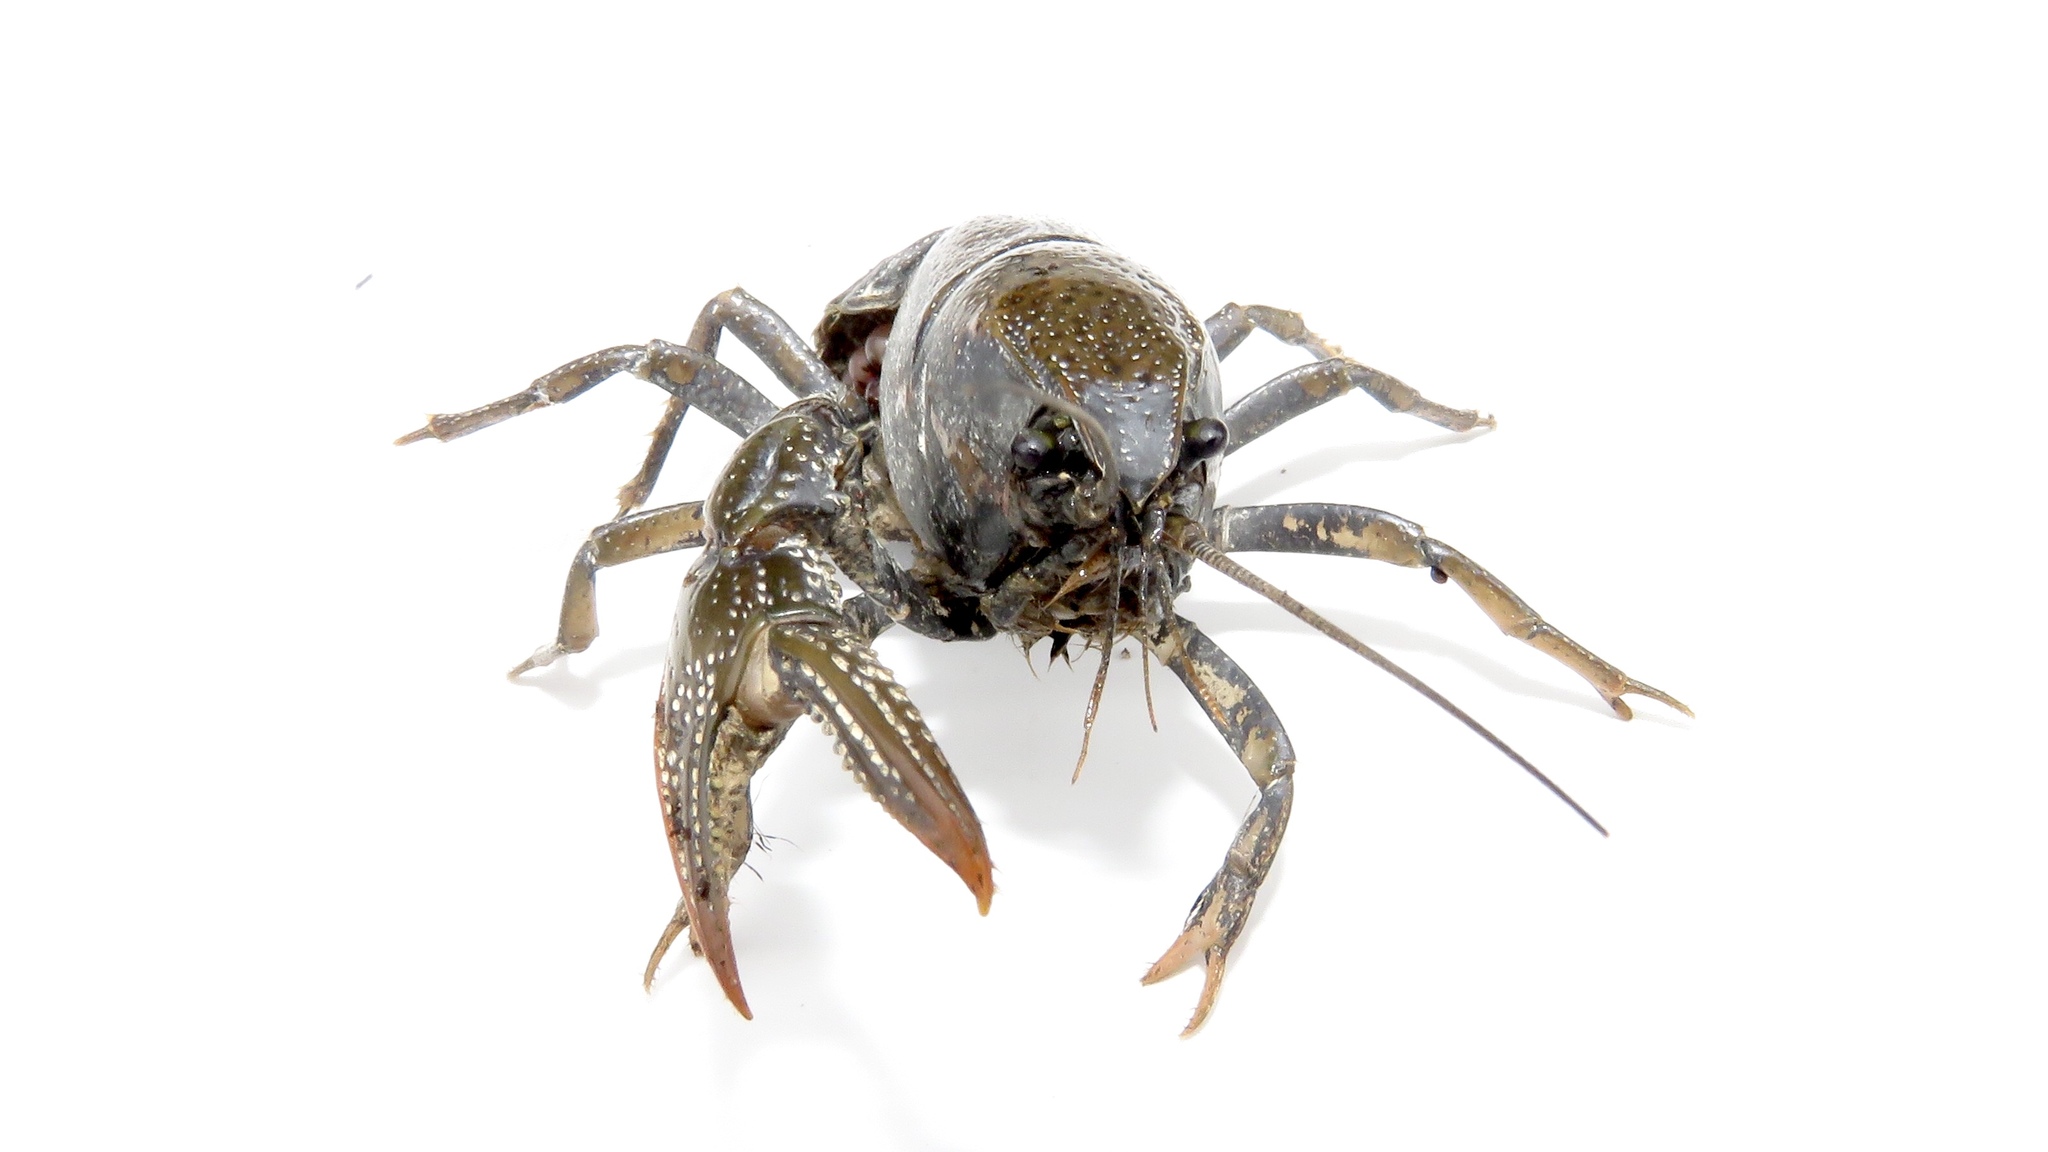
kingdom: Animalia
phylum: Arthropoda
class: Malacostraca
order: Decapoda
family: Cambaridae
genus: Creaserinus
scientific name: Creaserinus fodiens
